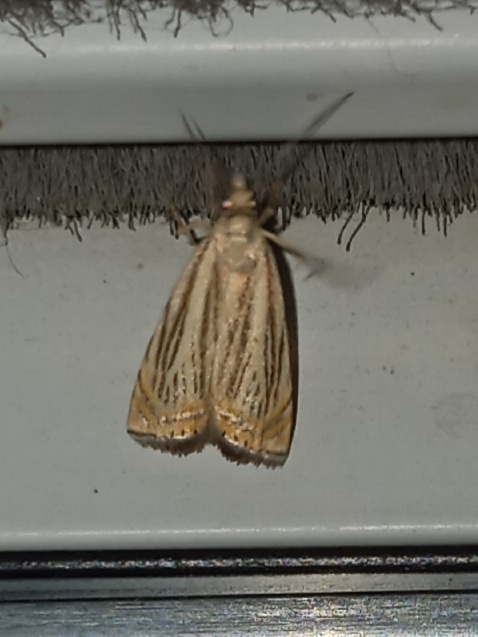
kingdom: Animalia
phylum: Arthropoda
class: Insecta
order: Lepidoptera
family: Crambidae
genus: Chrysoteuchia
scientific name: Chrysoteuchia topiarius
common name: Topiary grass-veneer
